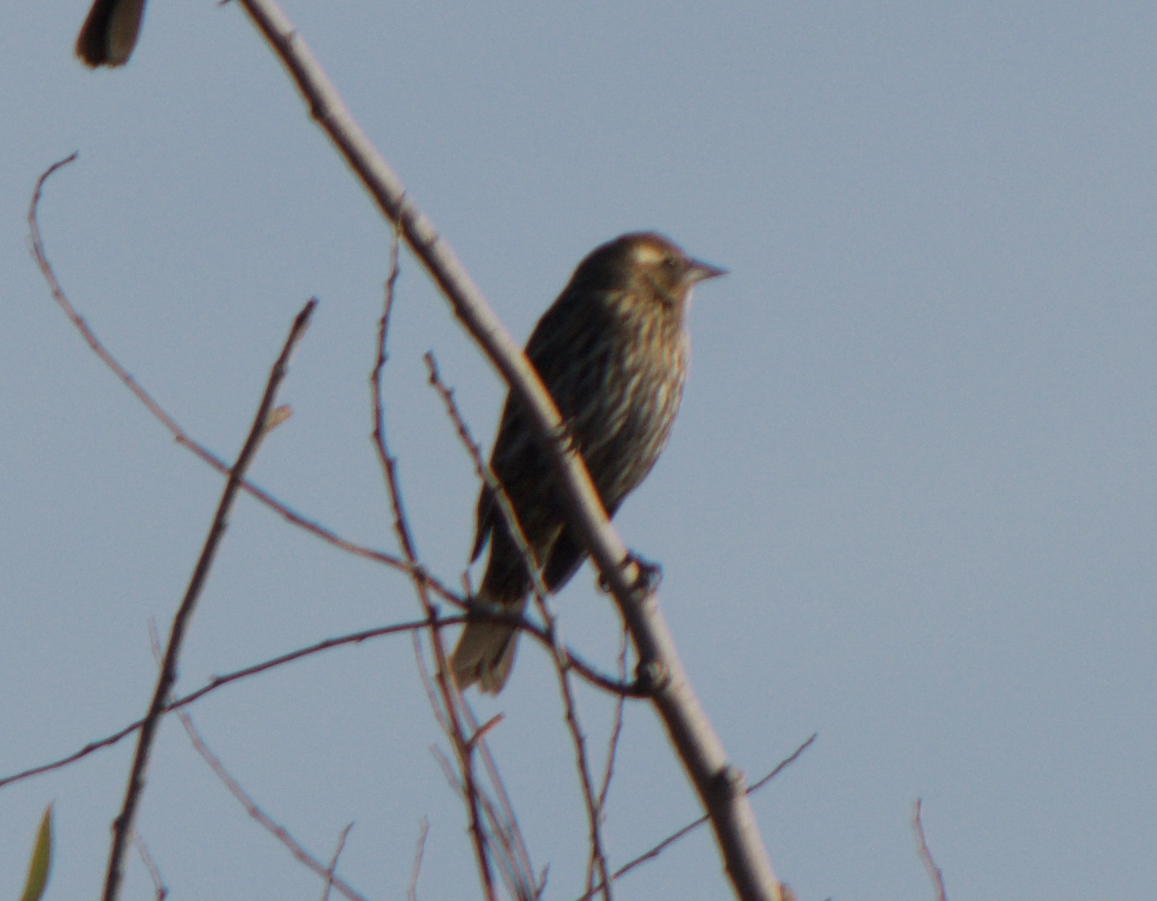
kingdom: Animalia
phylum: Chordata
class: Aves
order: Passeriformes
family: Icteridae
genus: Agelaius
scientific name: Agelaius phoeniceus
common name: Red-winged blackbird
